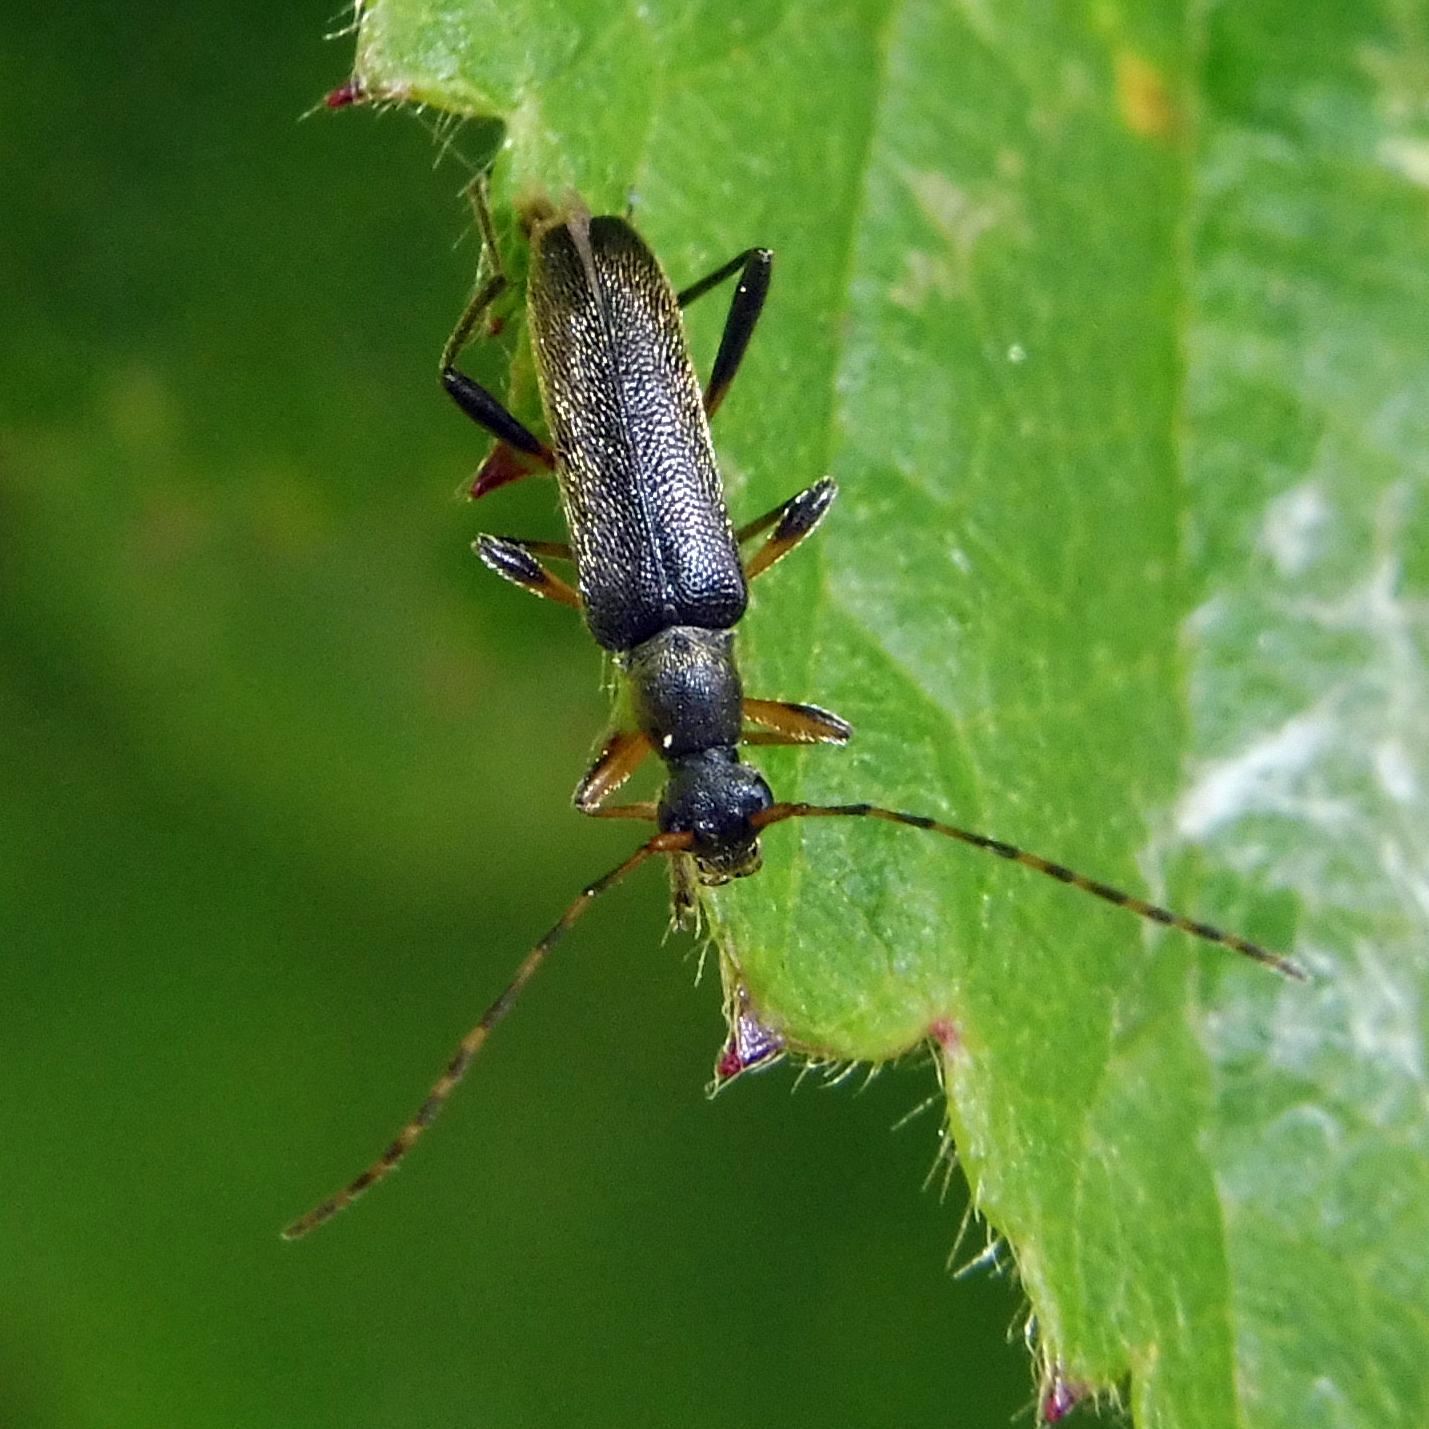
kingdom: Animalia
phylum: Arthropoda
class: Insecta
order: Coleoptera
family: Cerambycidae
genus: Grammoptera
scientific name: Grammoptera ruficornis
